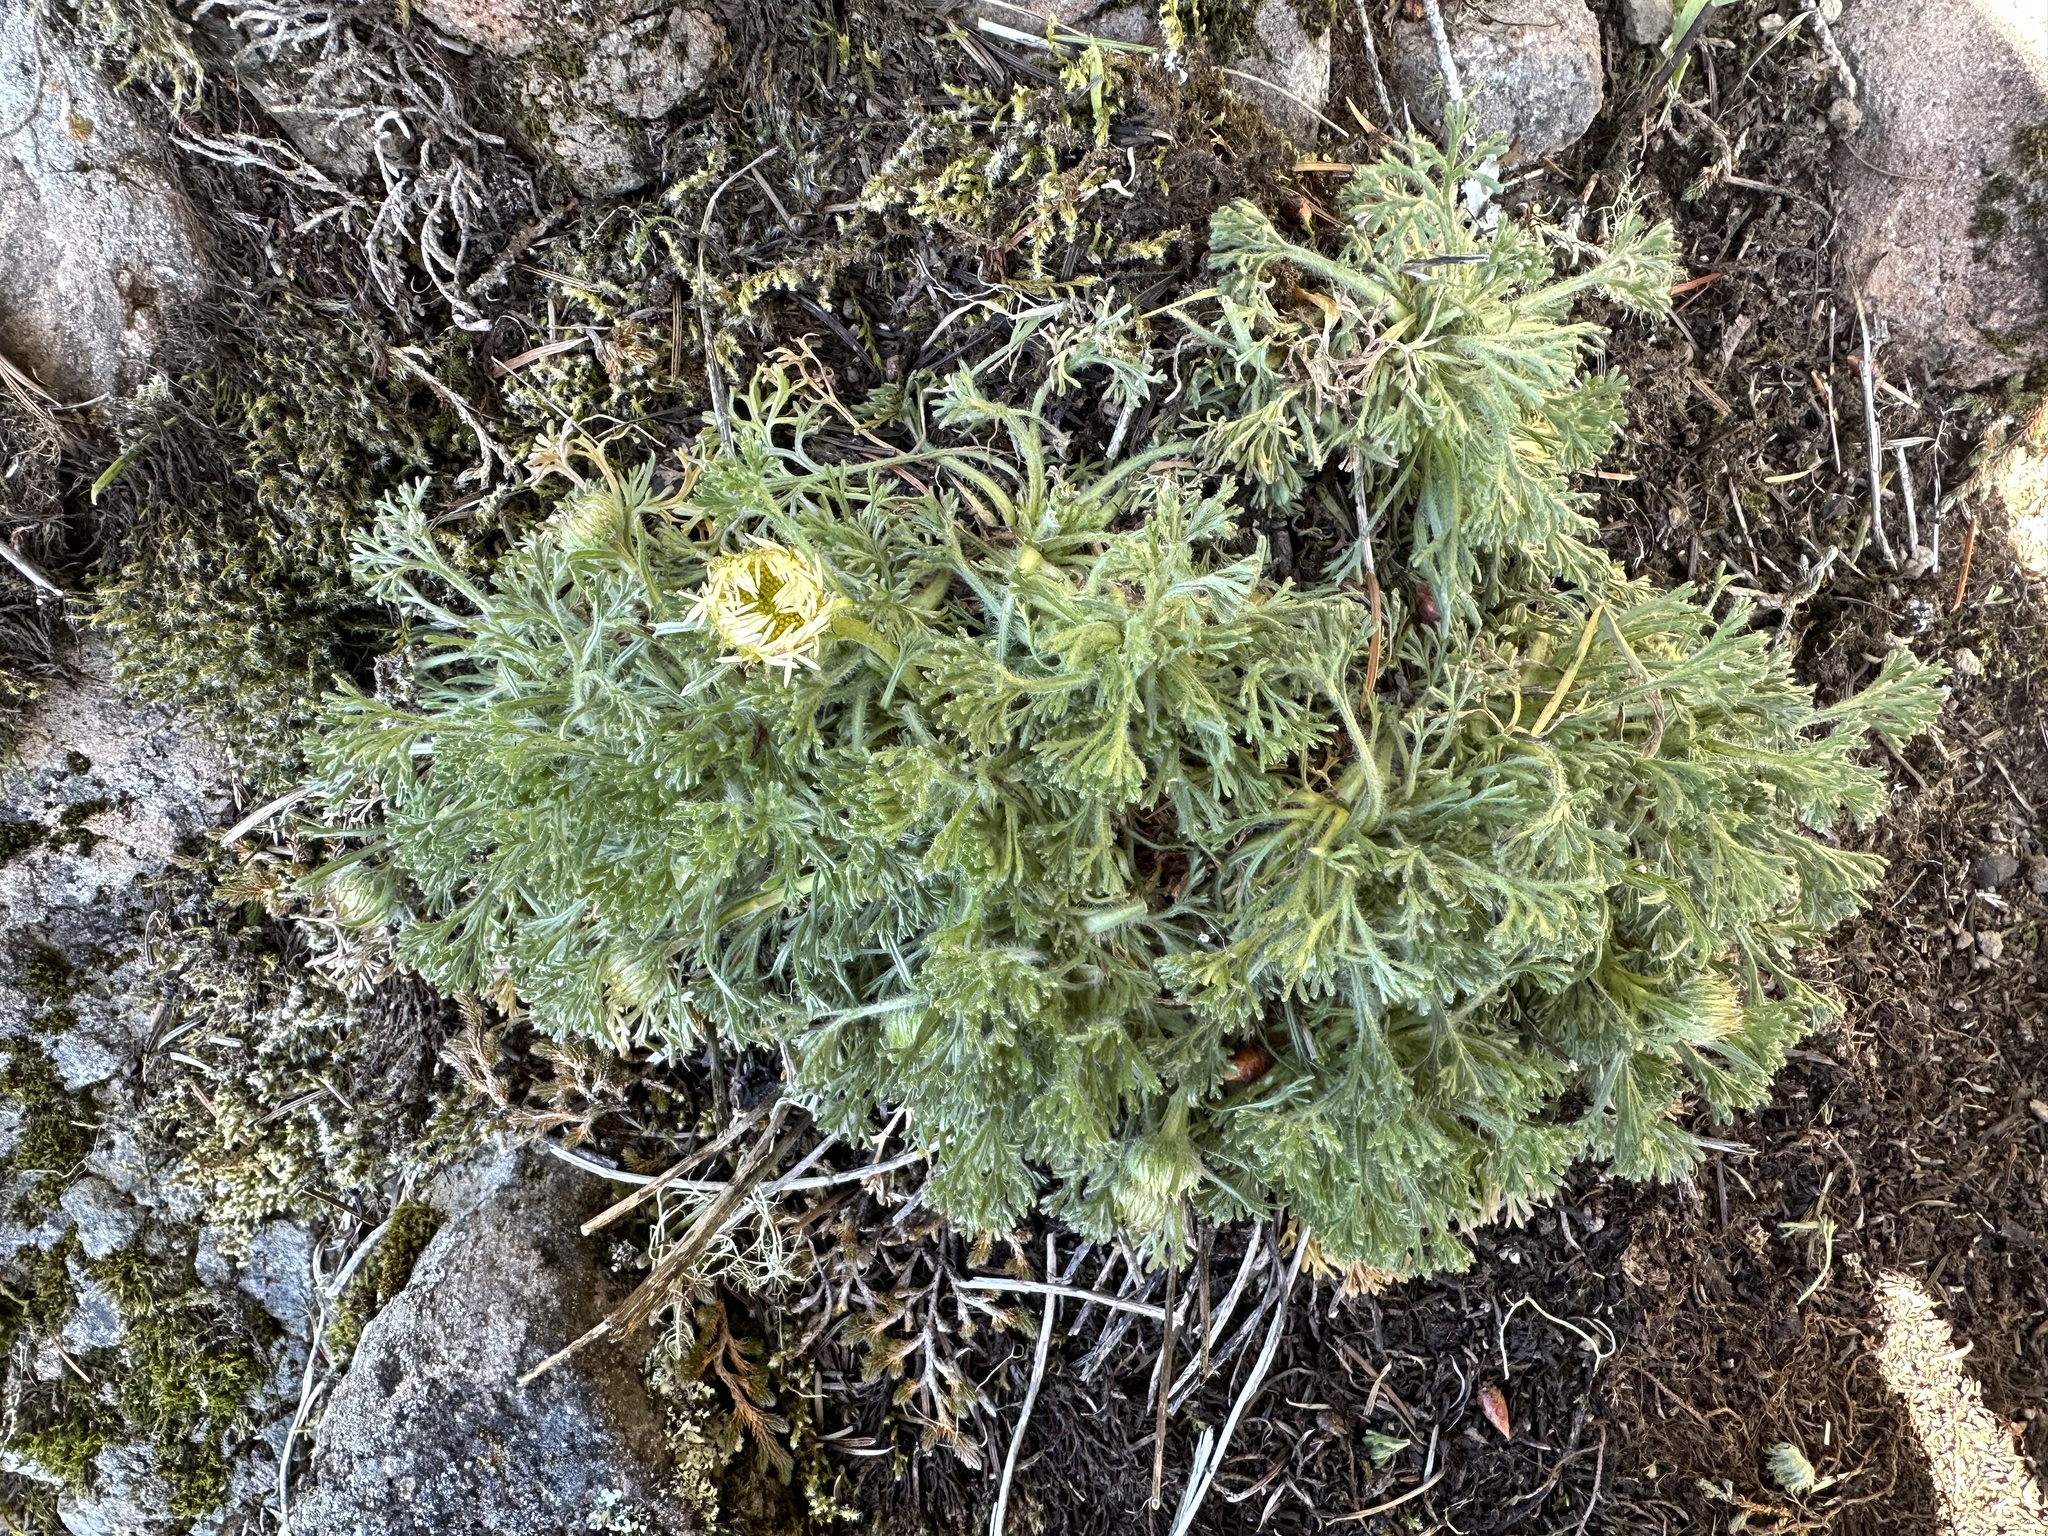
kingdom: Plantae
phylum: Tracheophyta
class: Magnoliopsida
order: Asterales
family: Asteraceae
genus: Erigeron
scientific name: Erigeron compositus
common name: Dwarf mountain fleabane
